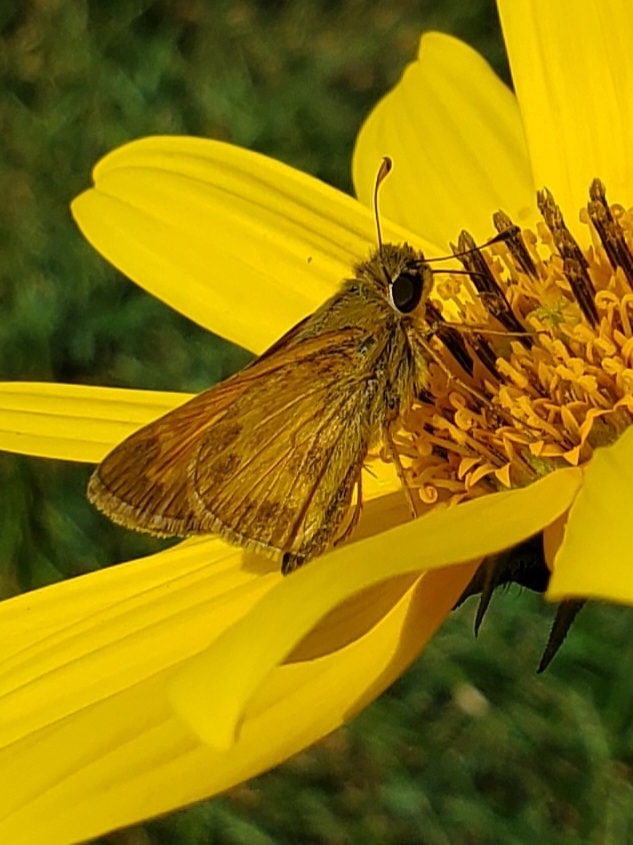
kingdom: Animalia
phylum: Arthropoda
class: Insecta
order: Lepidoptera
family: Hesperiidae
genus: Atalopedes
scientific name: Atalopedes
